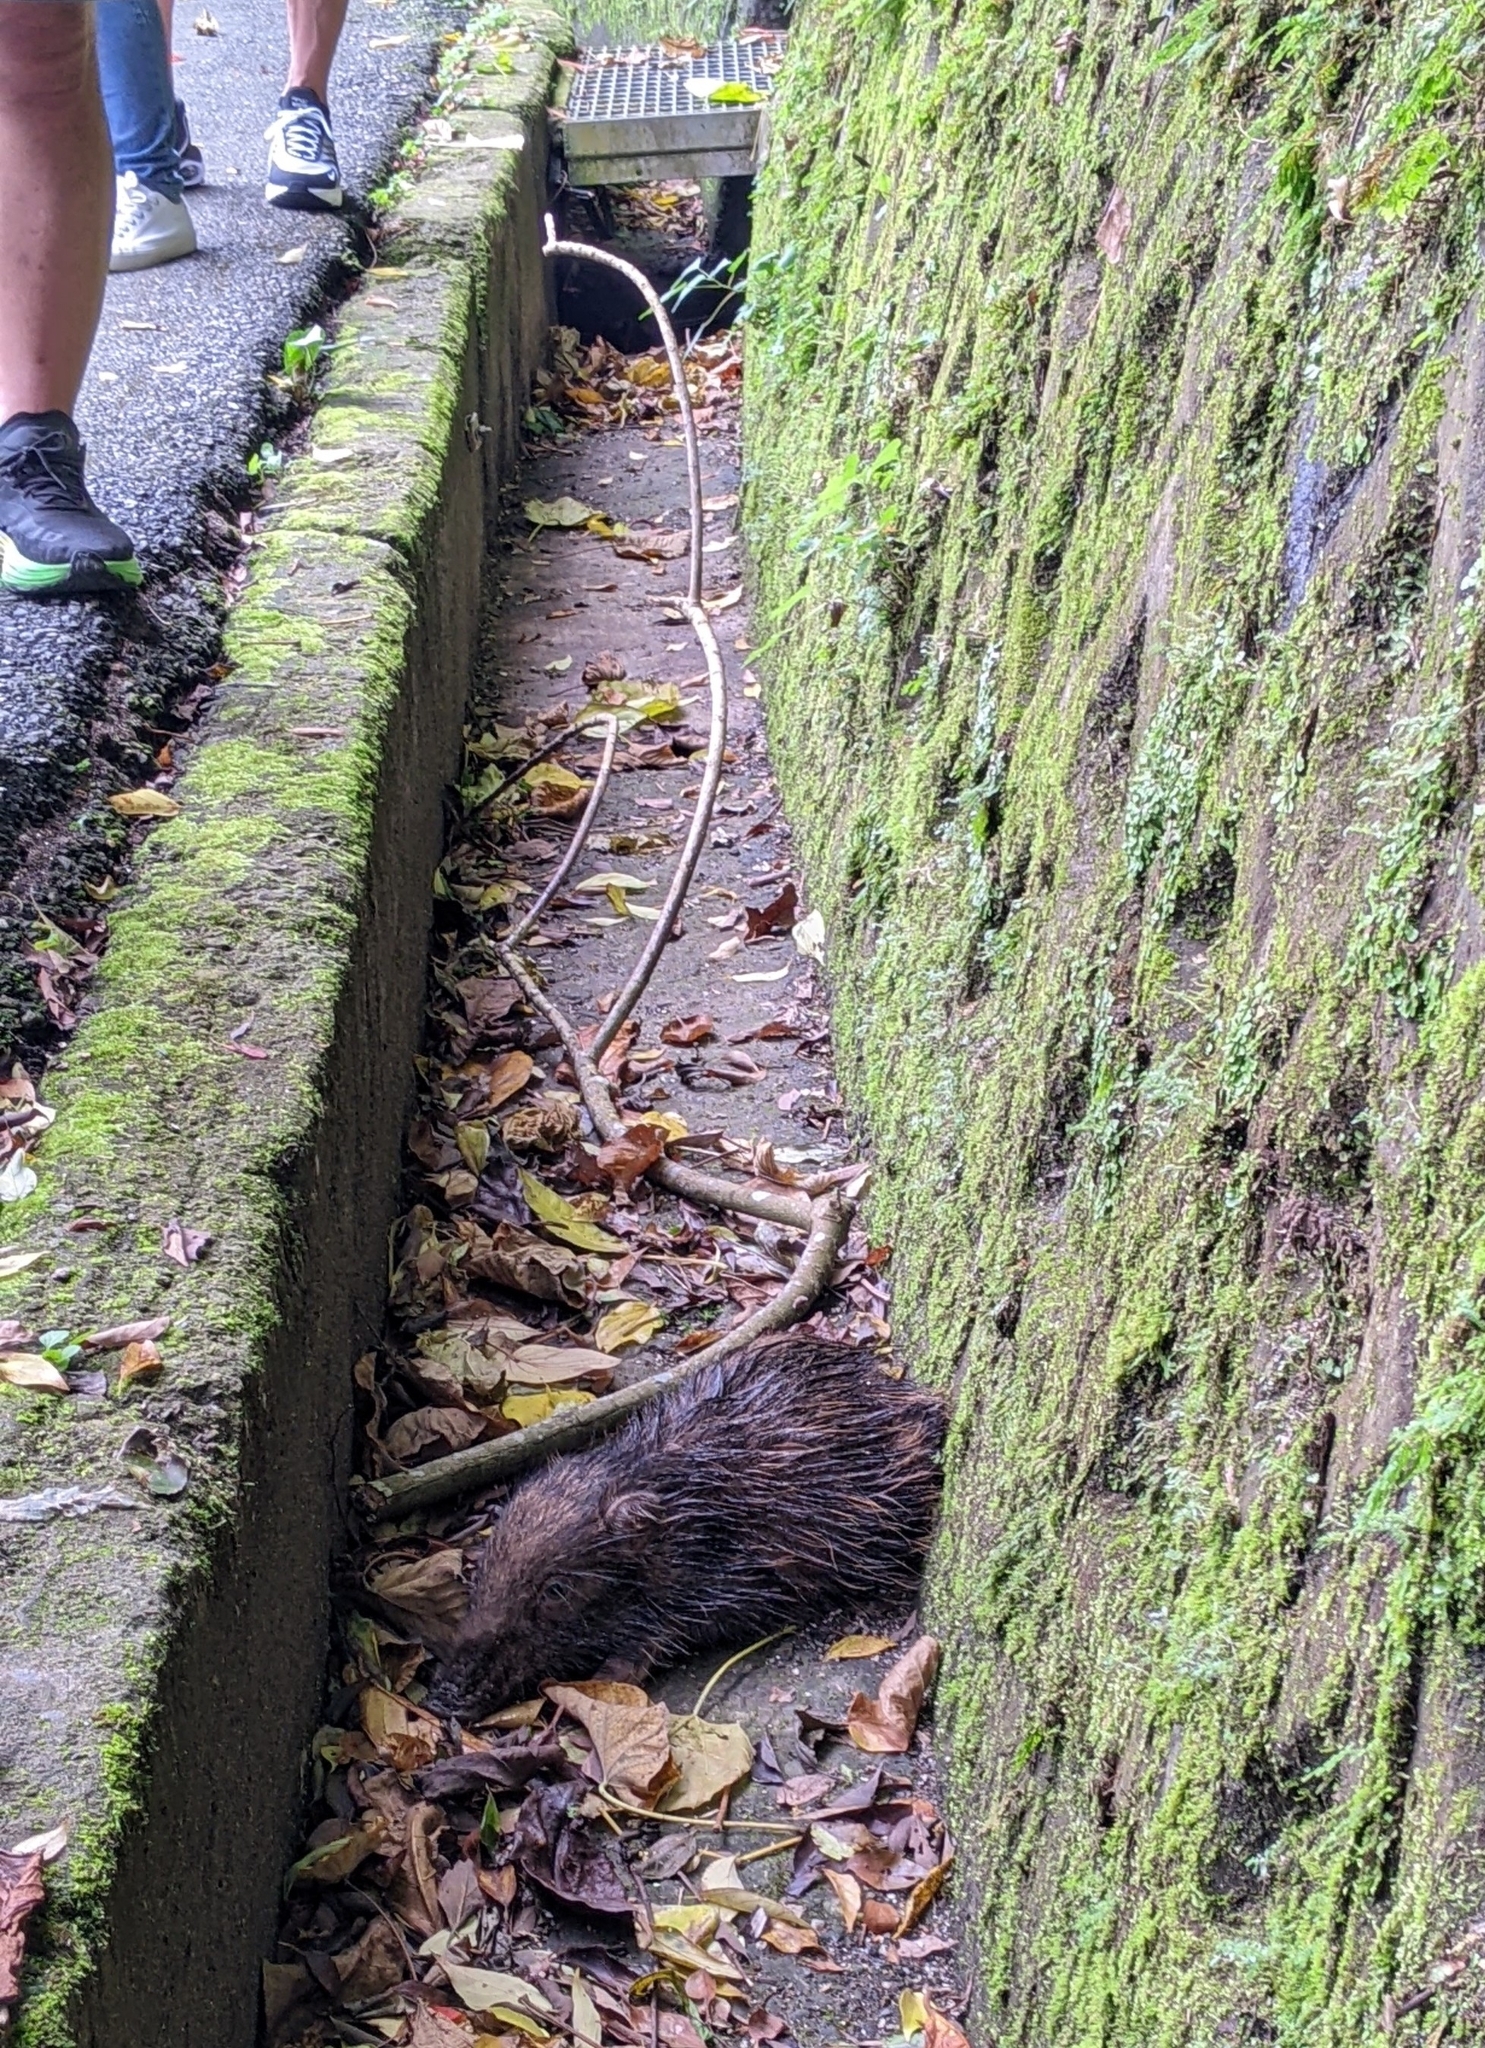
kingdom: Animalia
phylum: Chordata
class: Mammalia
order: Artiodactyla
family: Suidae
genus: Sus
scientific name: Sus scrofa
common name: Wild boar
